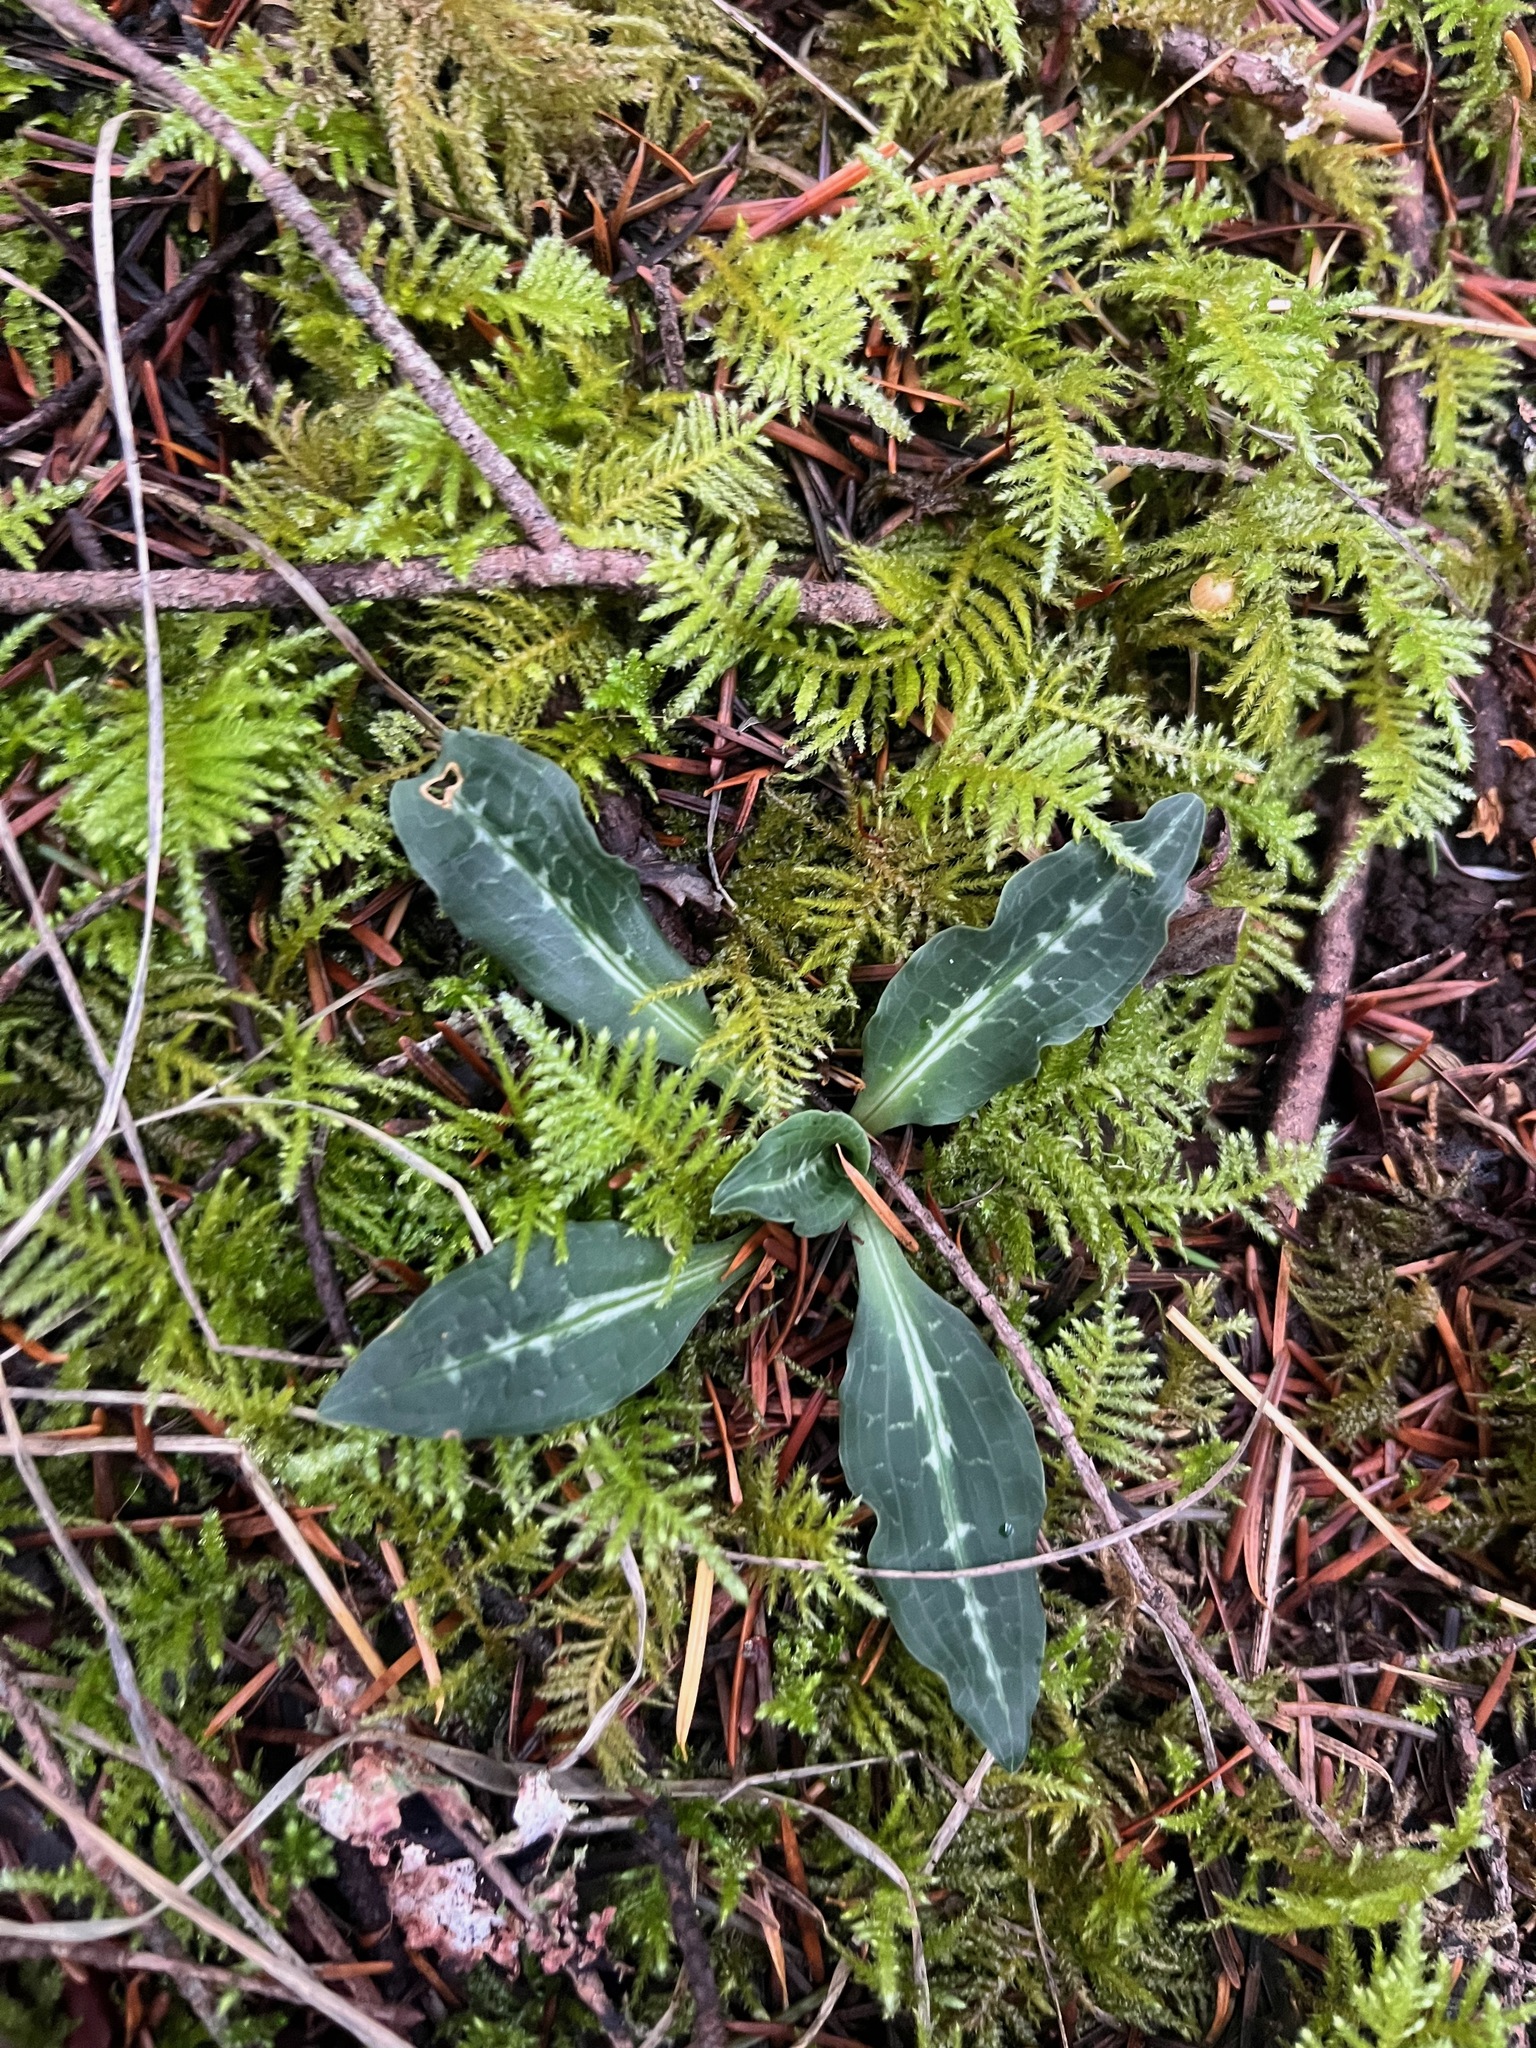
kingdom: Plantae
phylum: Tracheophyta
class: Liliopsida
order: Asparagales
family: Orchidaceae
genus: Goodyera
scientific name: Goodyera oblongifolia
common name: Giant rattlesnake-plantain
